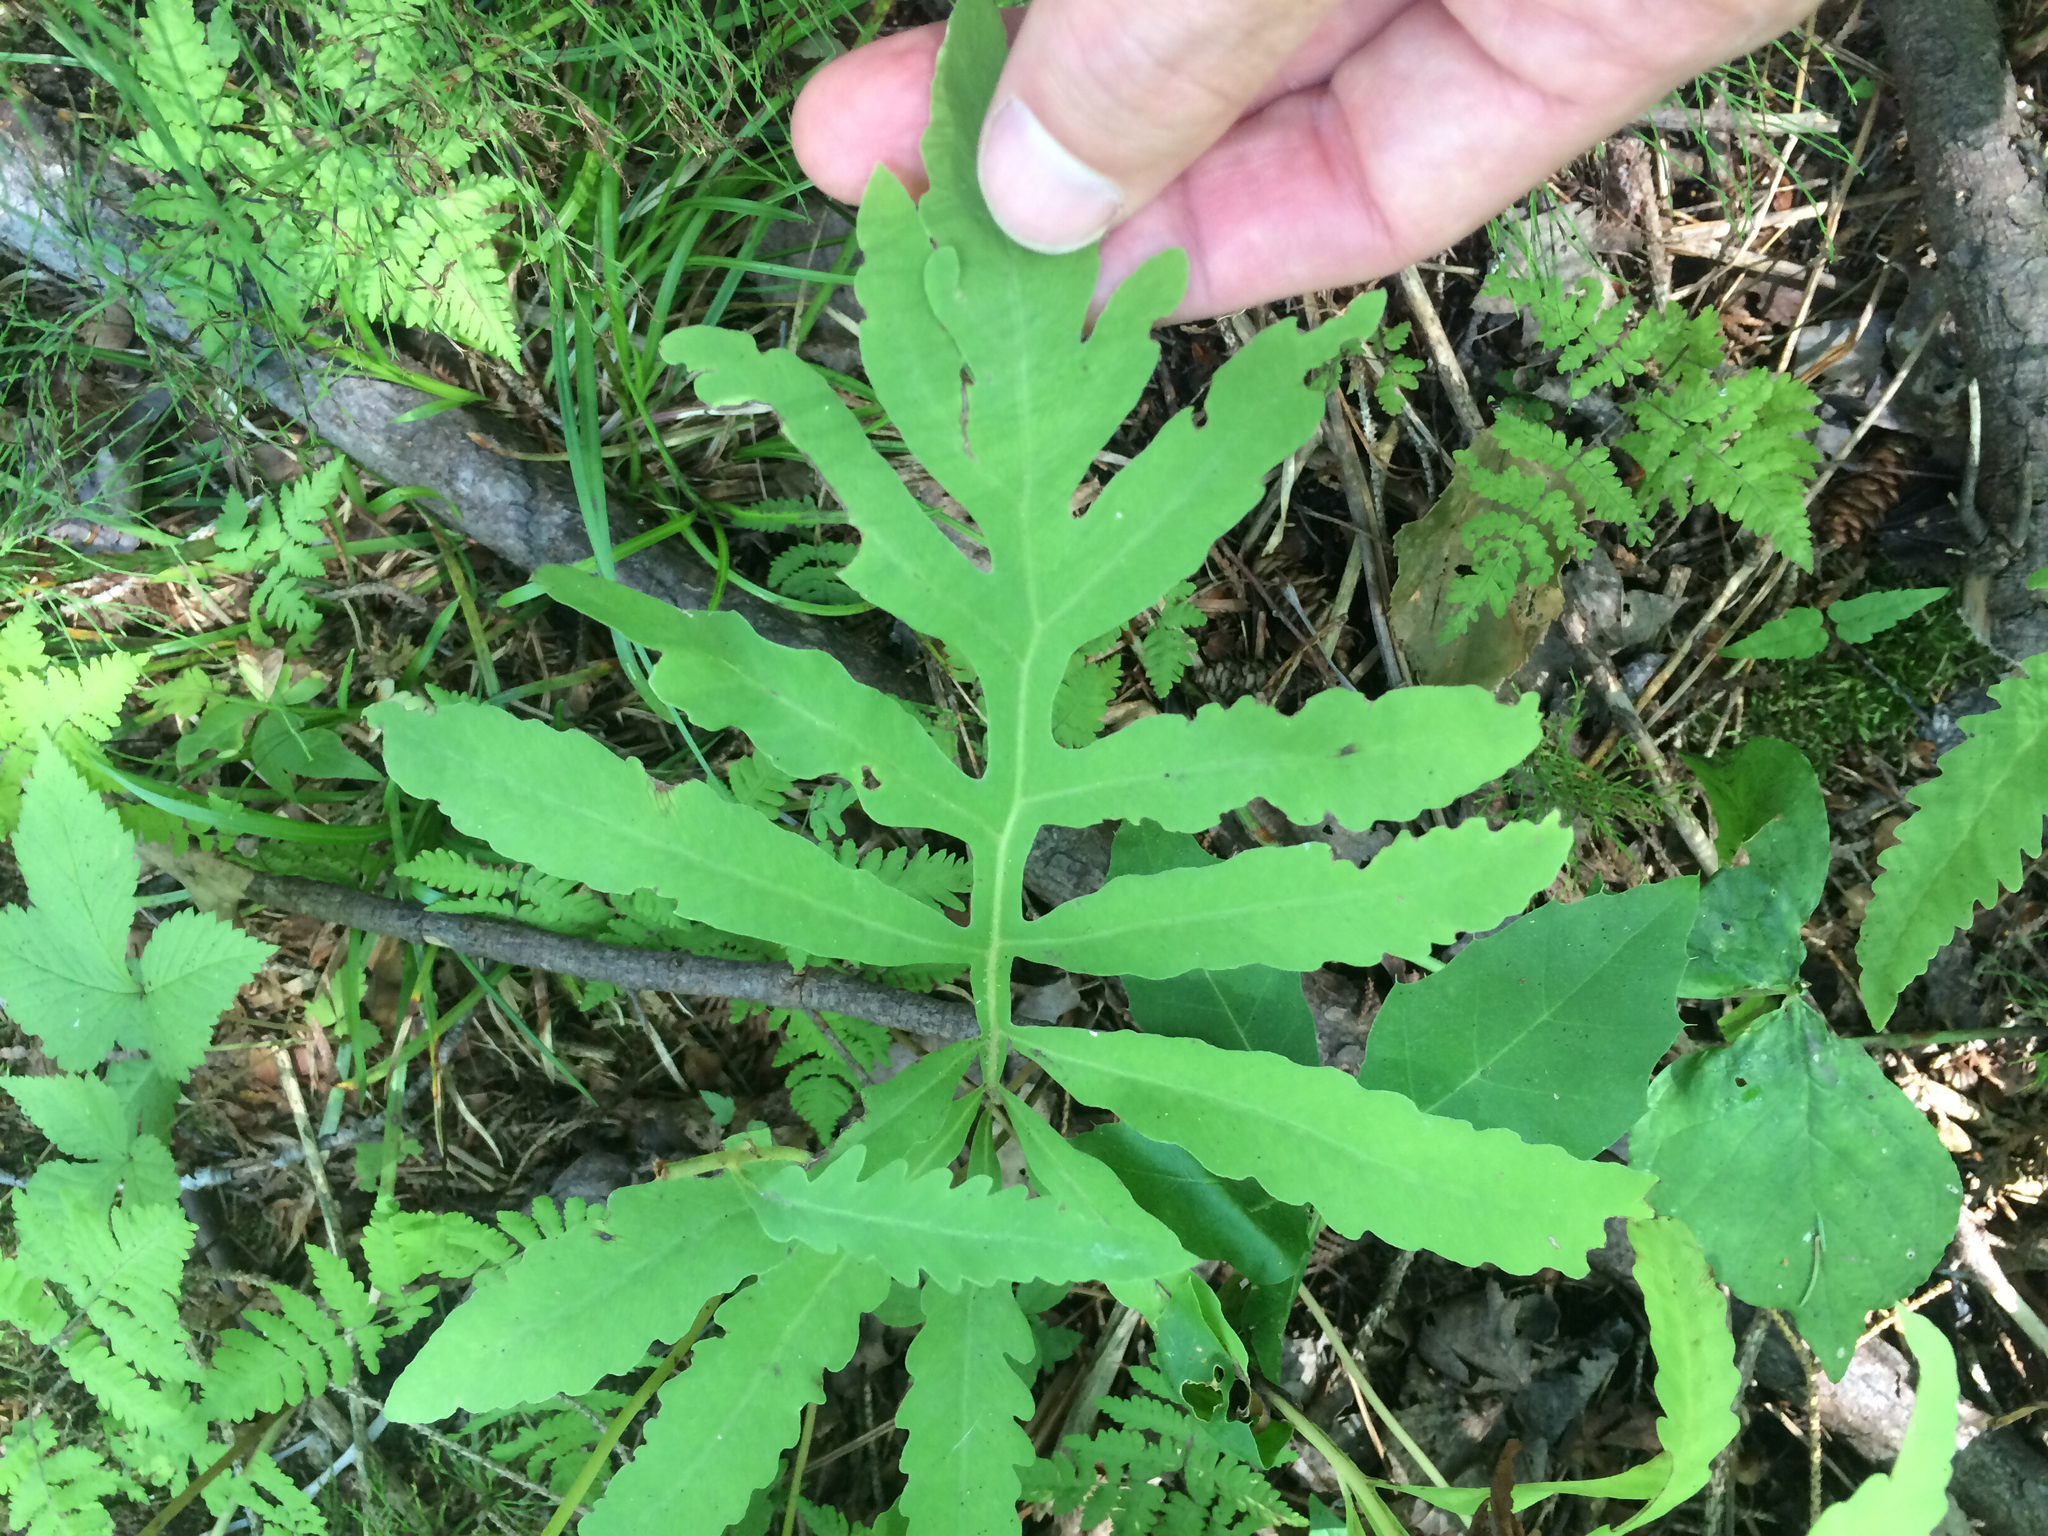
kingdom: Plantae
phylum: Tracheophyta
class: Polypodiopsida
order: Polypodiales
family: Onocleaceae
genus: Onoclea
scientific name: Onoclea sensibilis
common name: Sensitive fern
